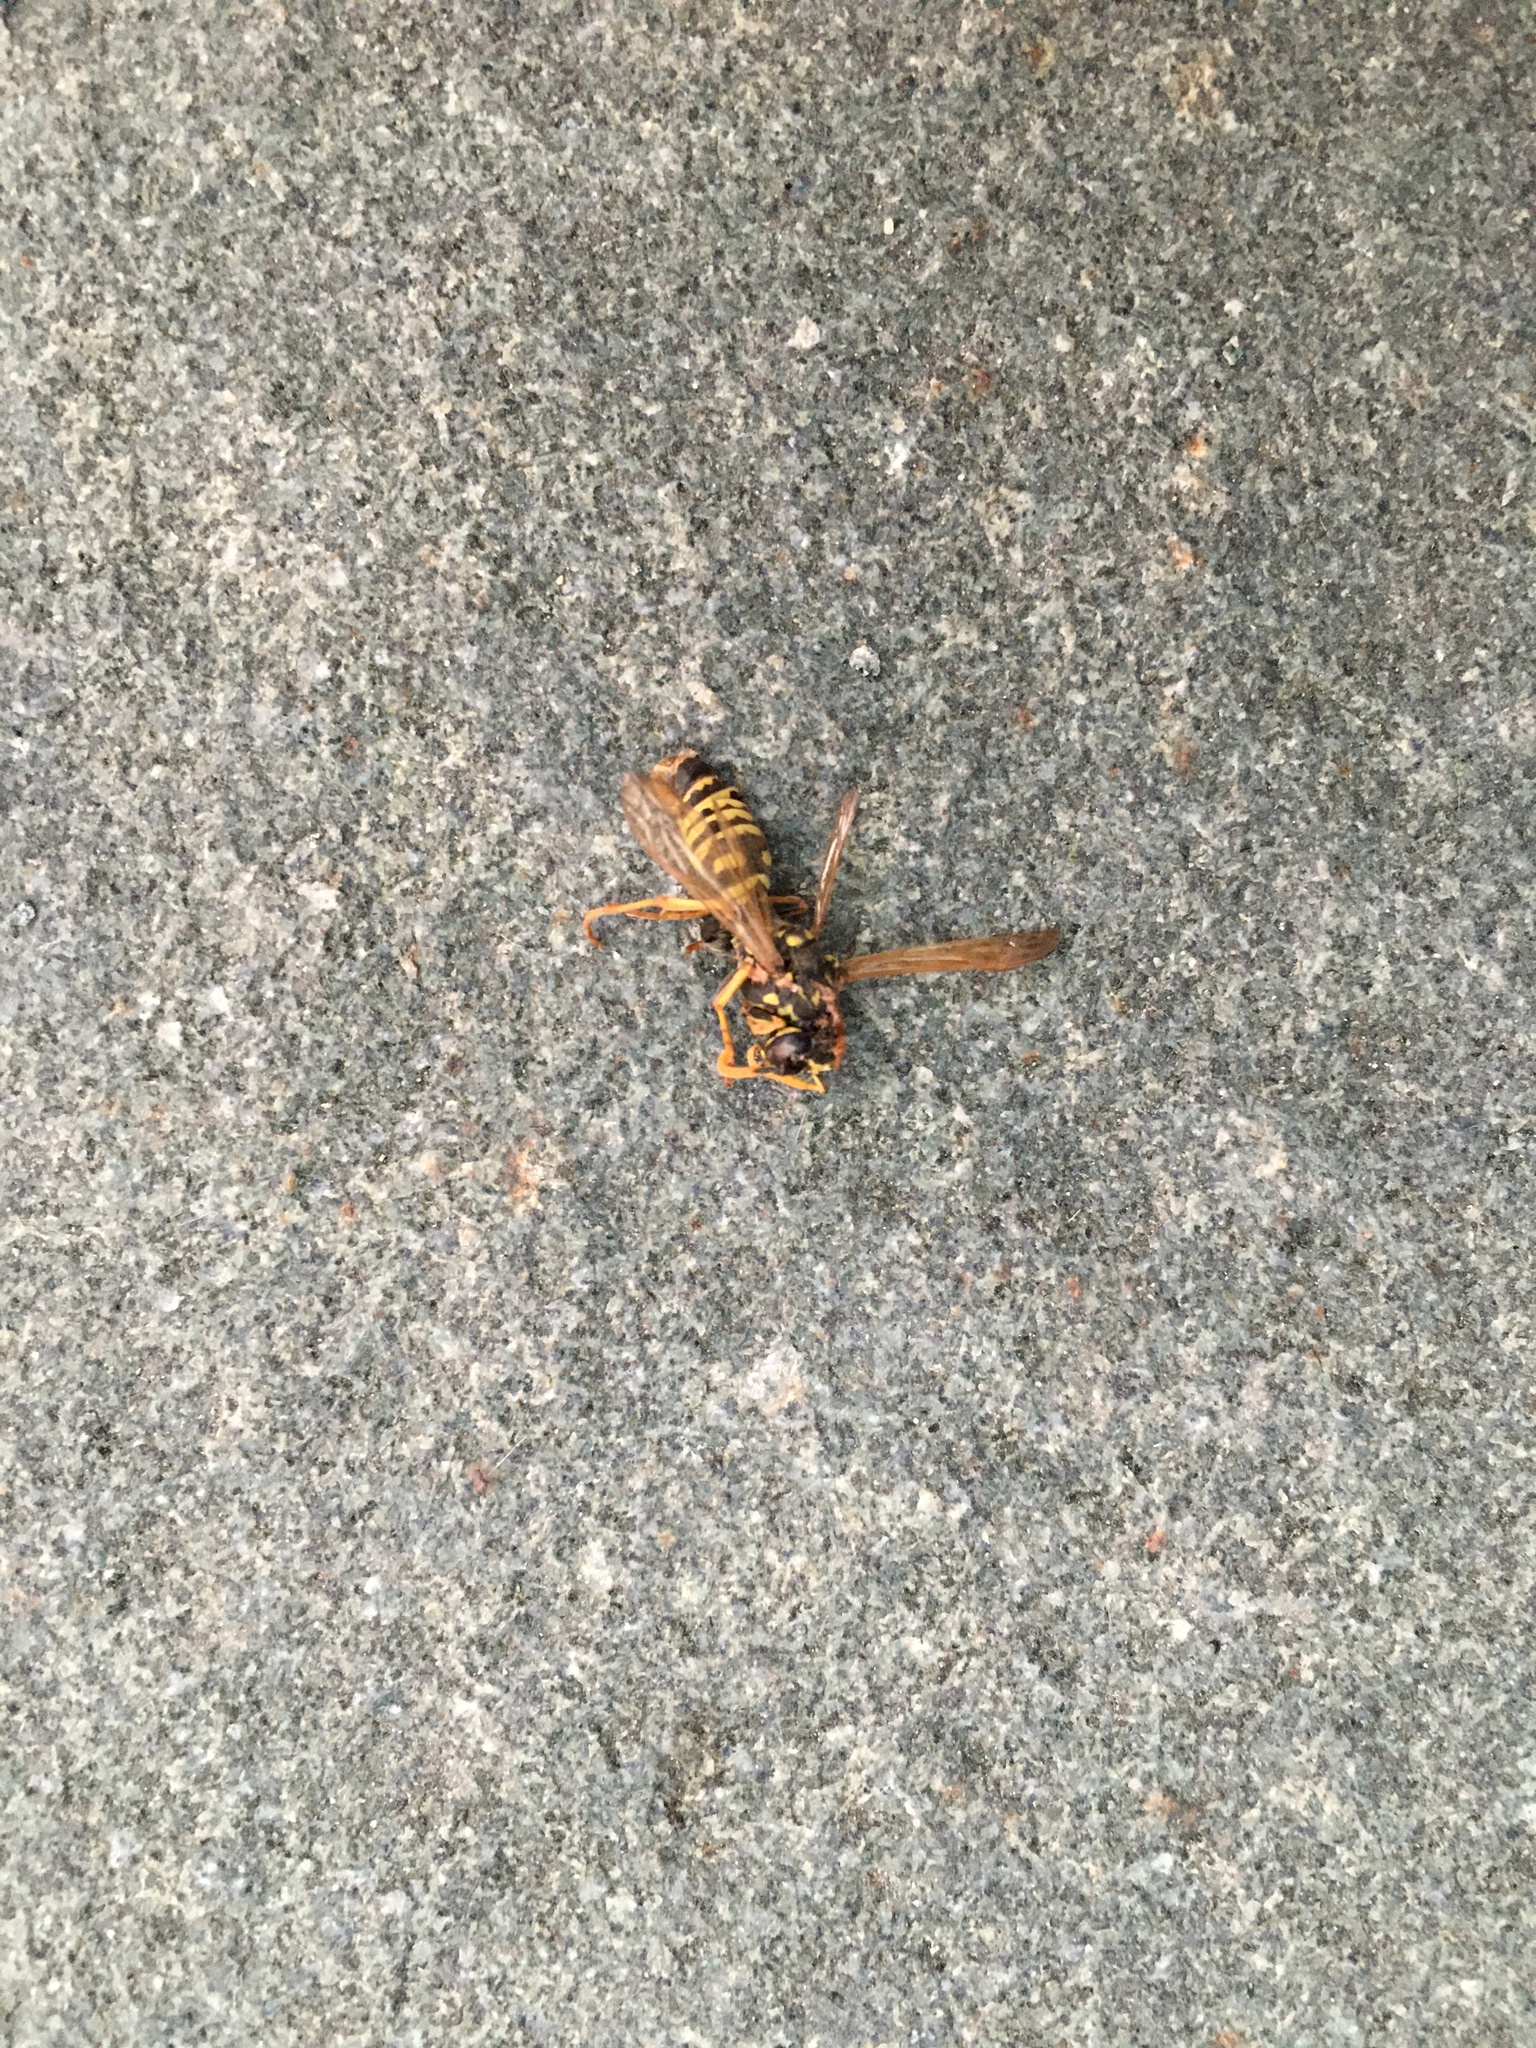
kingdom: Animalia
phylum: Arthropoda
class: Insecta
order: Hymenoptera
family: Eumenidae
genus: Polistes
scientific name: Polistes dominula
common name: Paper wasp
